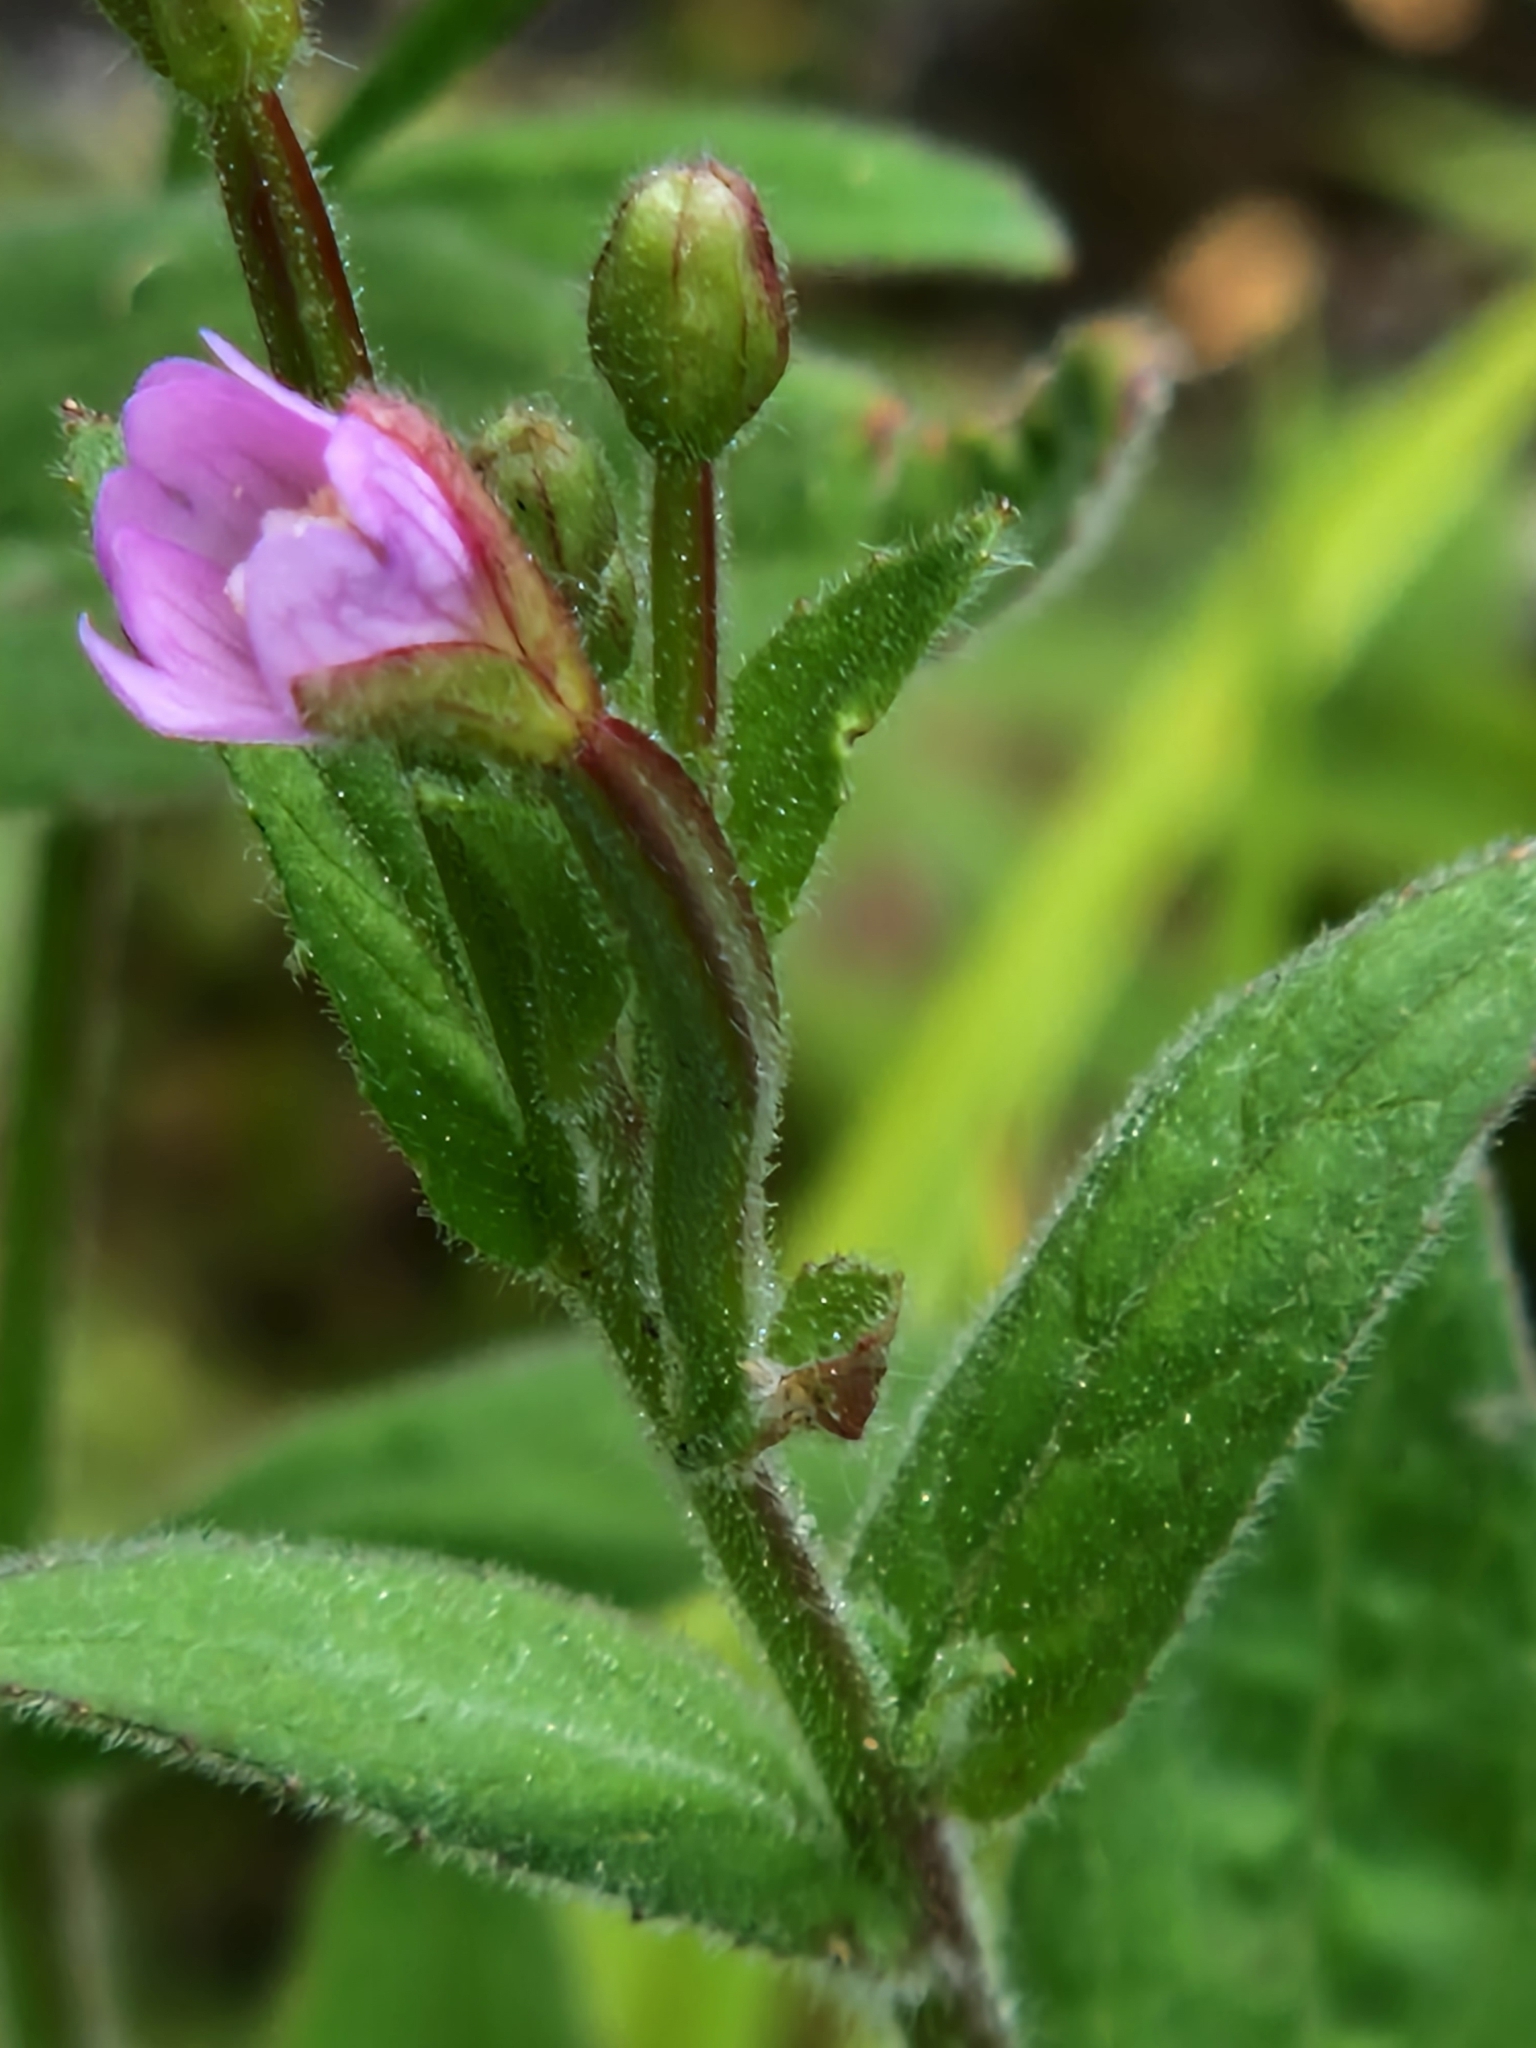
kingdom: Plantae
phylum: Tracheophyta
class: Magnoliopsida
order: Myrtales
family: Onagraceae
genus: Epilobium
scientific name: Epilobium parviflorum
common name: Hoary willowherb
